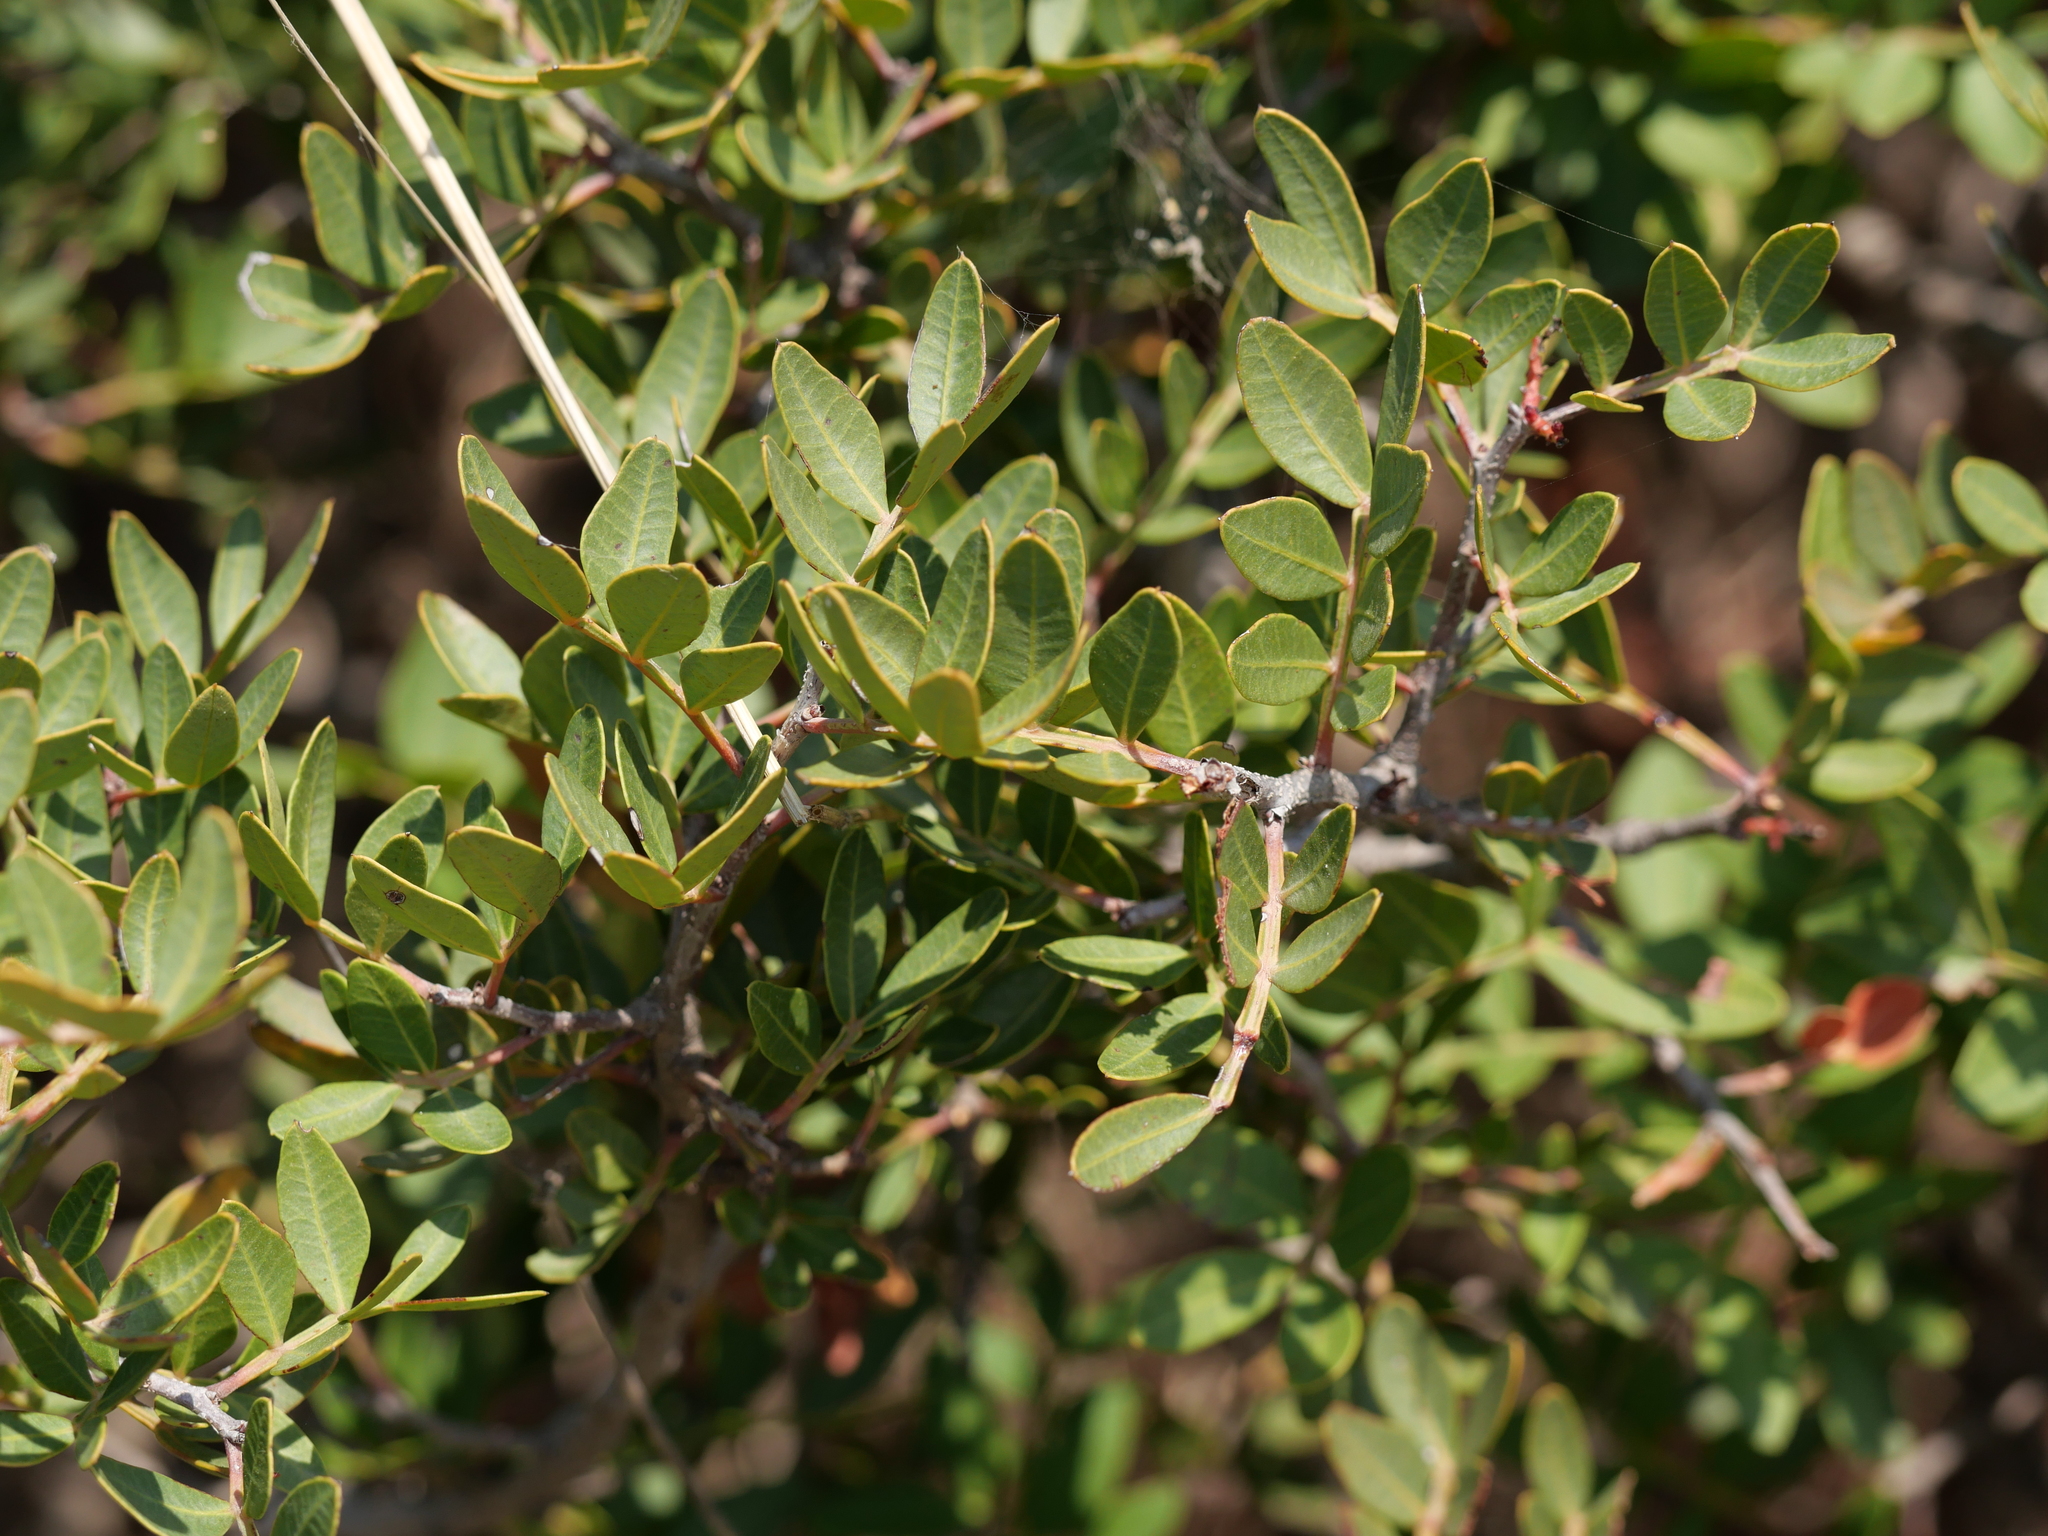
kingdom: Plantae
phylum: Tracheophyta
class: Magnoliopsida
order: Sapindales
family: Anacardiaceae
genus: Pistacia
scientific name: Pistacia lentiscus
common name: Lentisk
